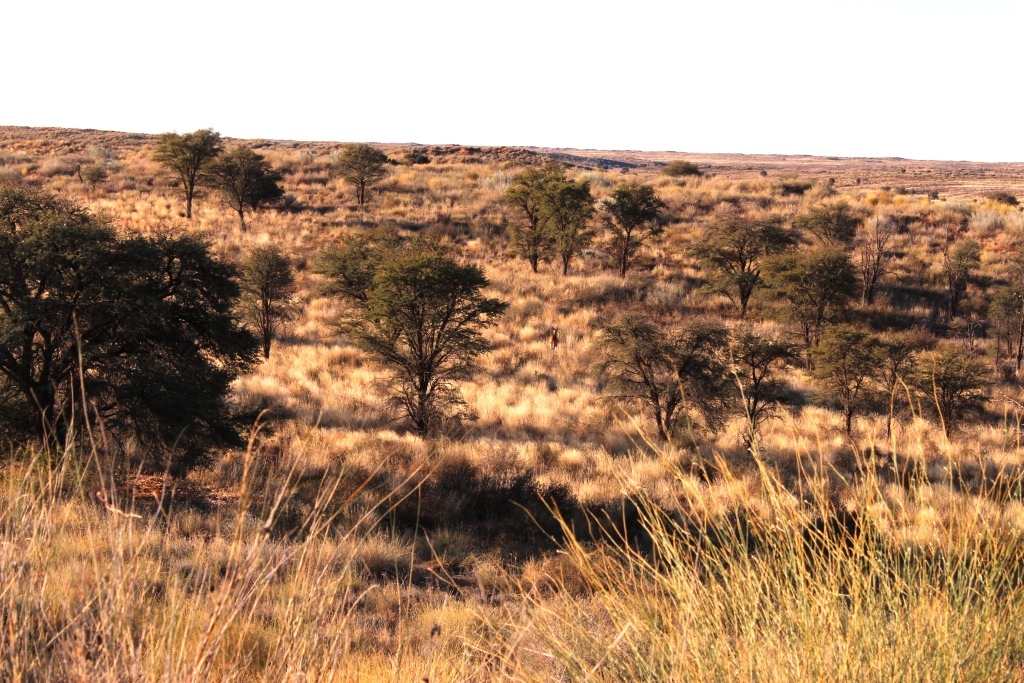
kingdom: Animalia
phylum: Chordata
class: Mammalia
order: Artiodactyla
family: Bovidae
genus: Taurotragus
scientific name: Taurotragus oryx
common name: Common eland
